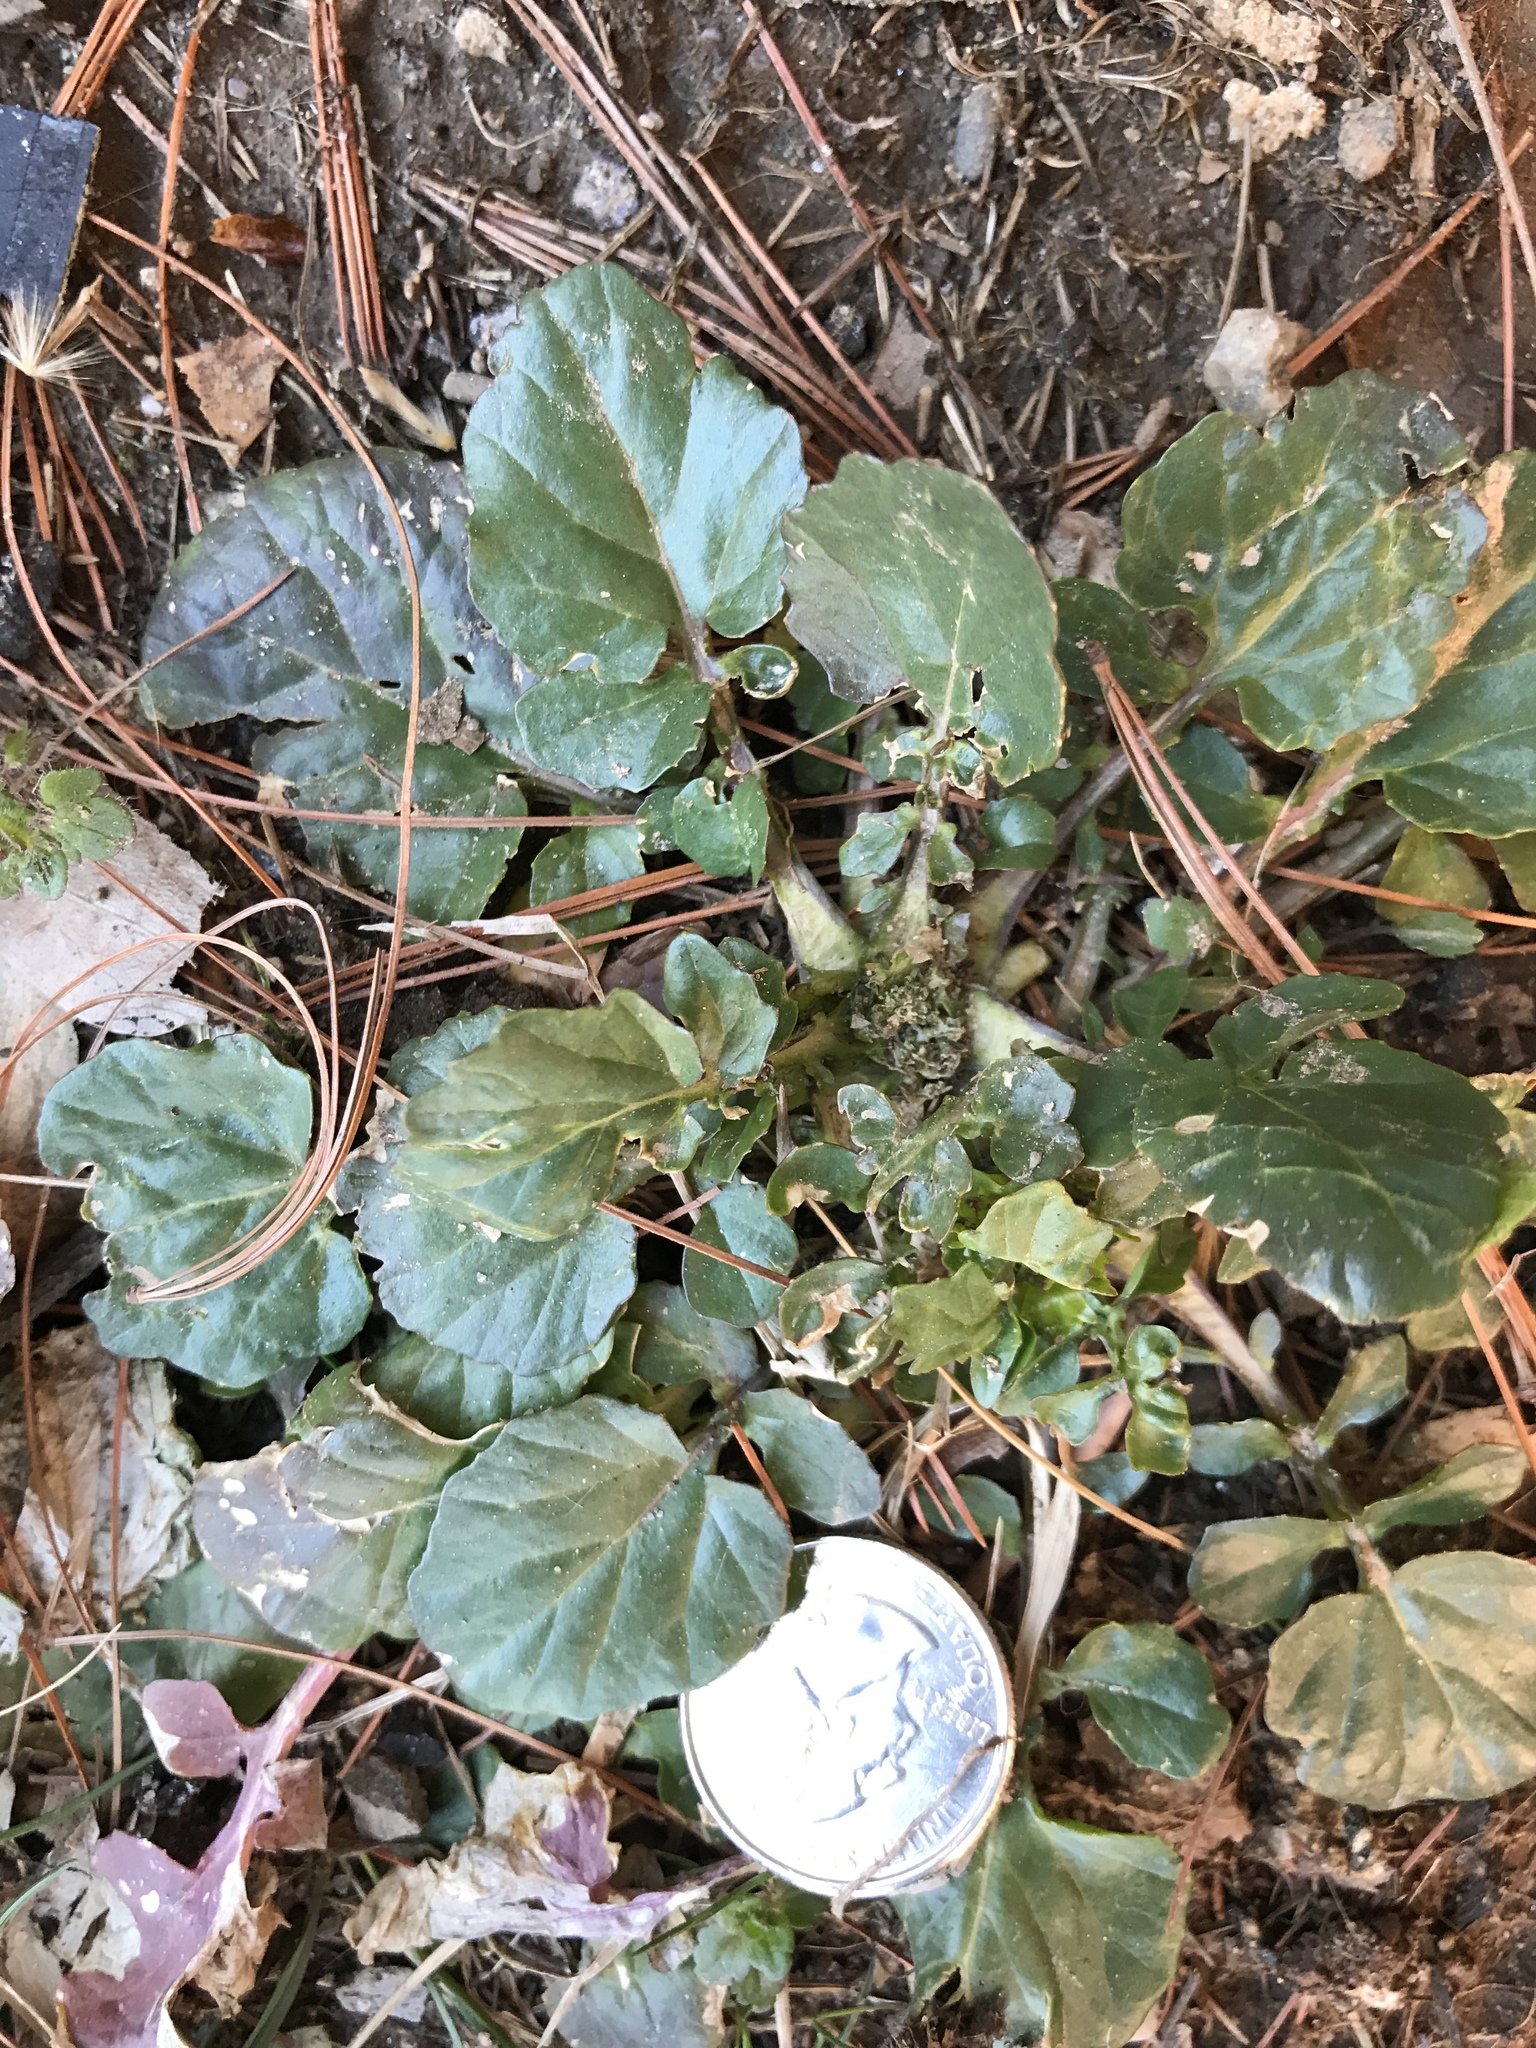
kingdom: Plantae
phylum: Tracheophyta
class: Magnoliopsida
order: Brassicales
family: Brassicaceae
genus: Barbarea
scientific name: Barbarea vulgaris
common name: Cressy-greens
